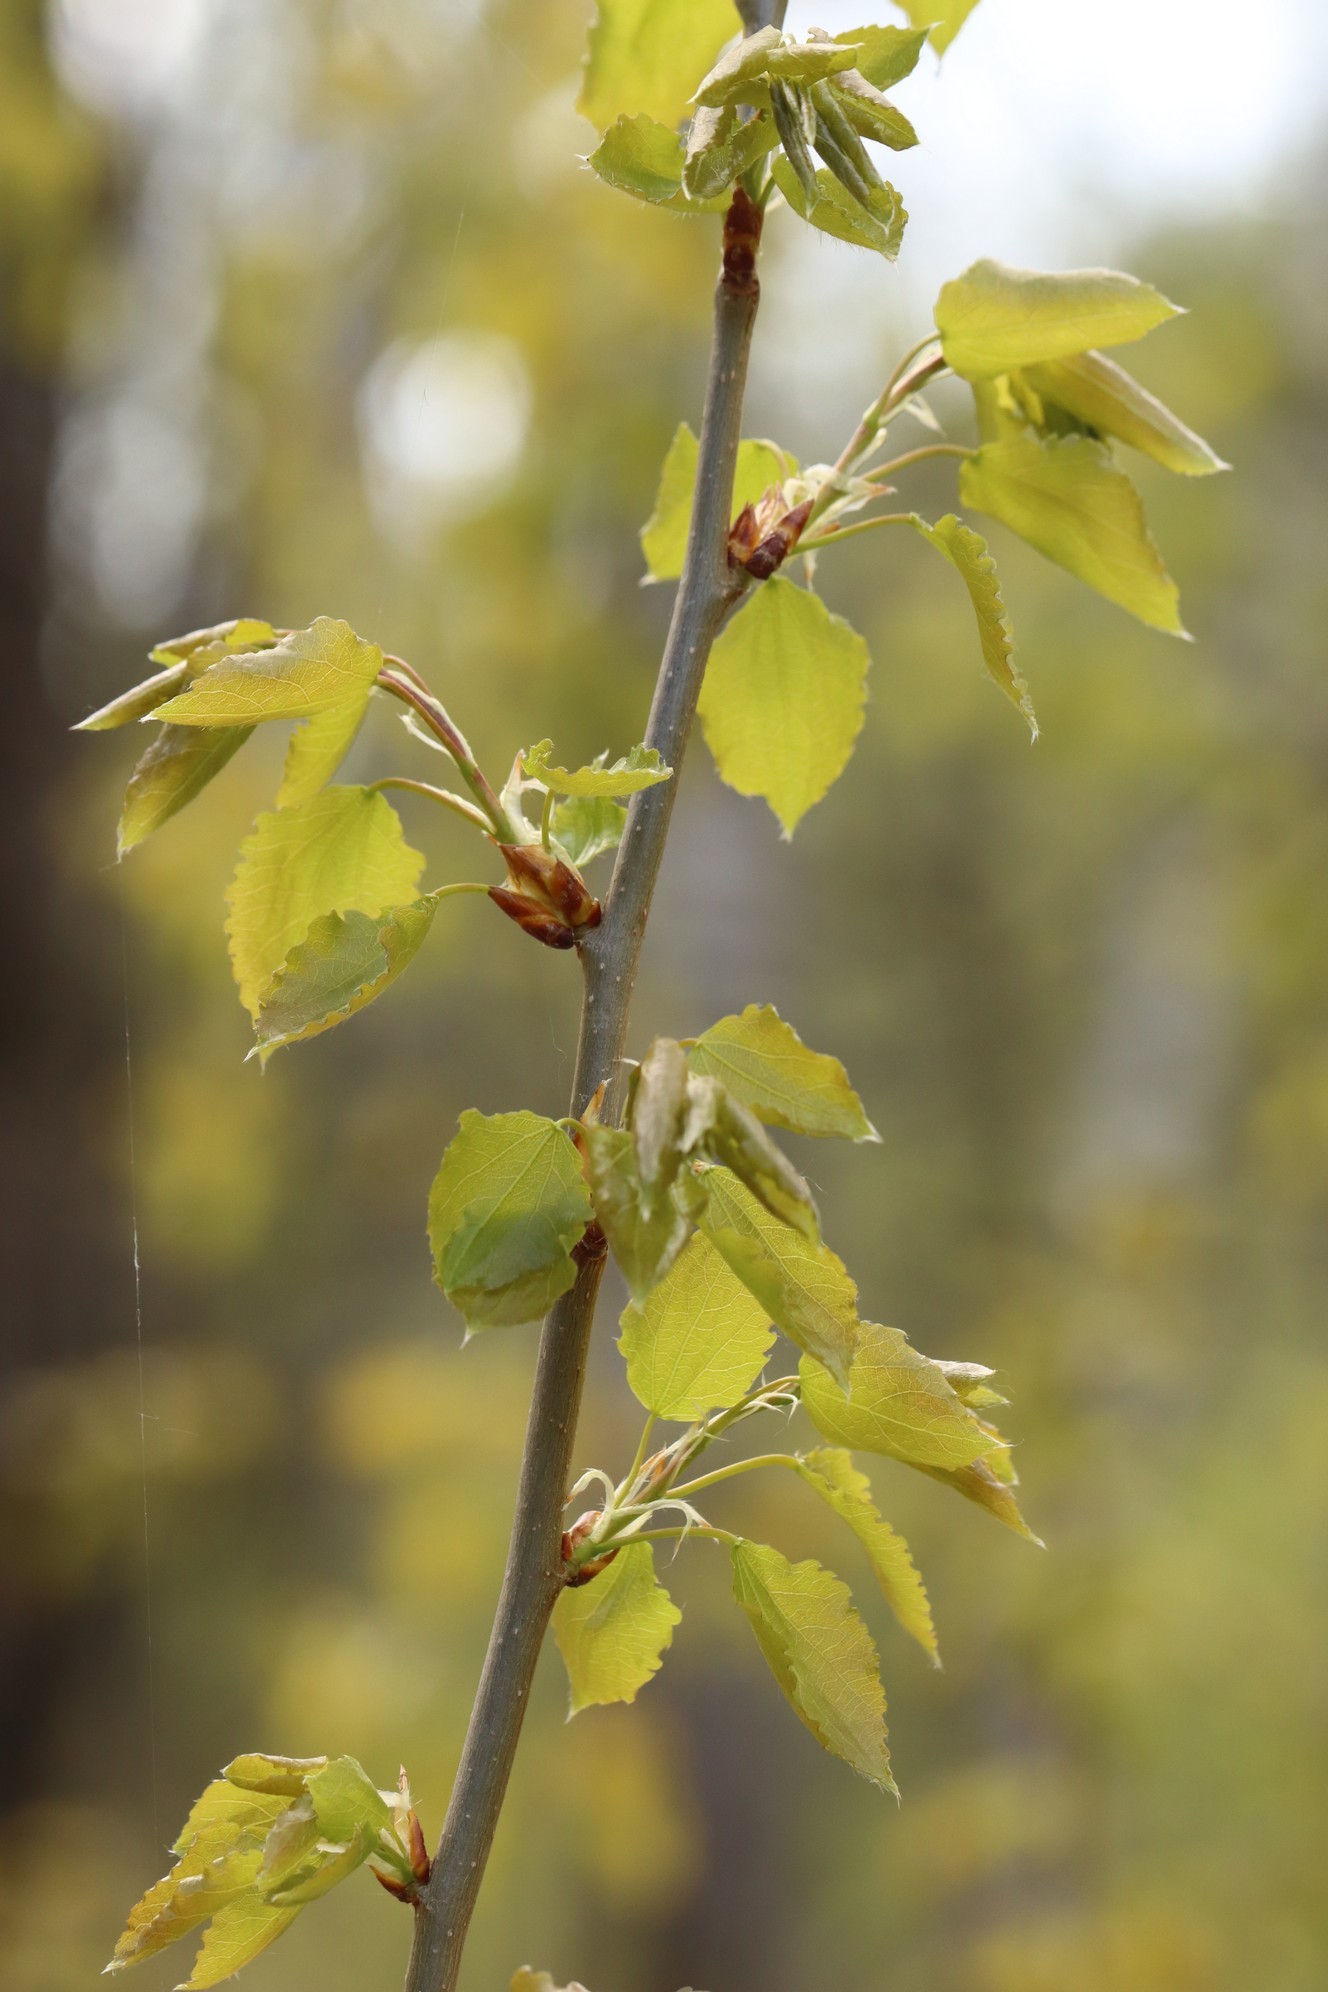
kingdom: Plantae
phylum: Tracheophyta
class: Magnoliopsida
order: Malpighiales
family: Salicaceae
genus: Populus
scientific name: Populus tremula
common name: European aspen
